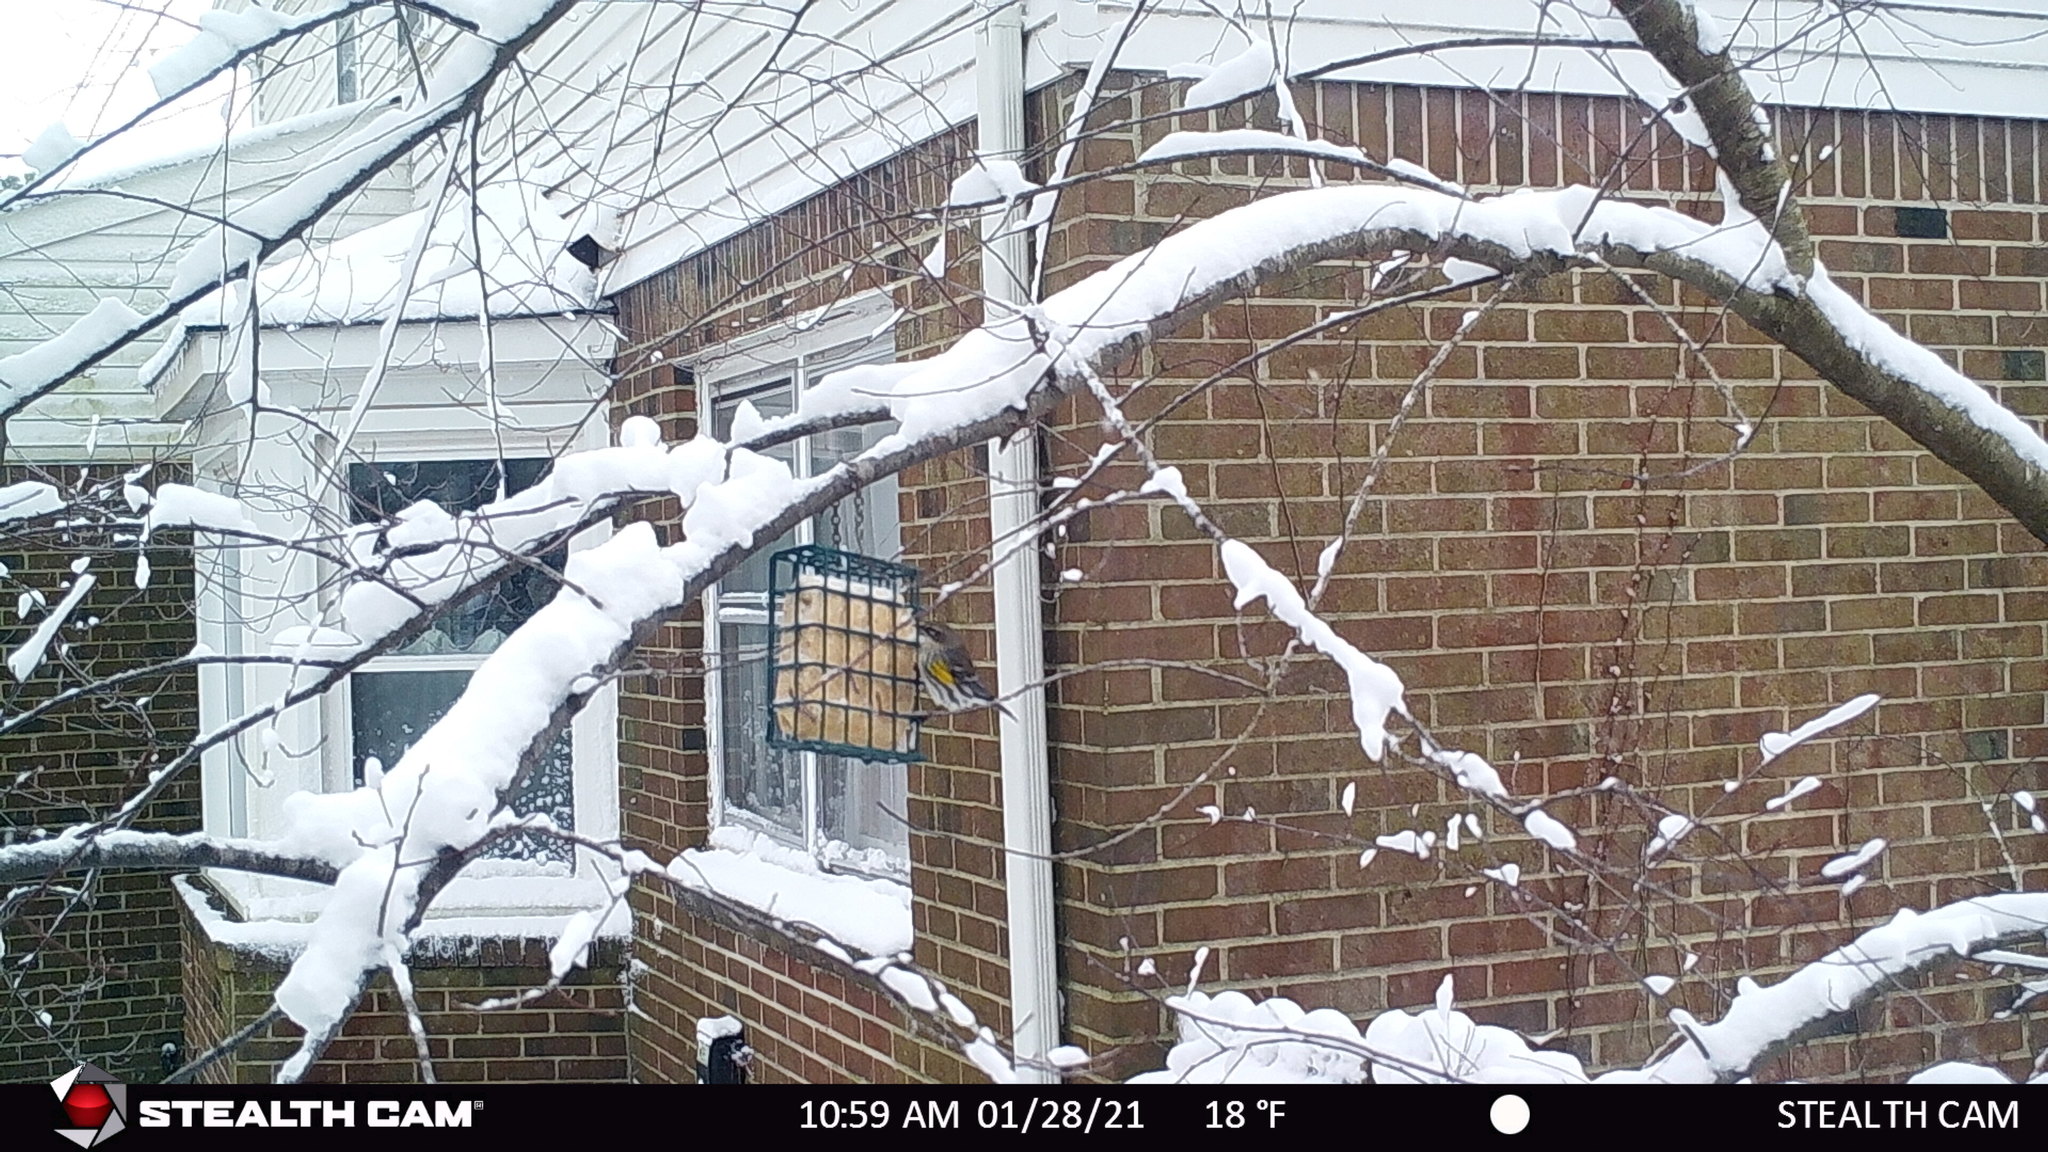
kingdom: Animalia
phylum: Chordata
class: Aves
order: Passeriformes
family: Parulidae
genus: Setophaga
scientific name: Setophaga coronata
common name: Myrtle warbler
